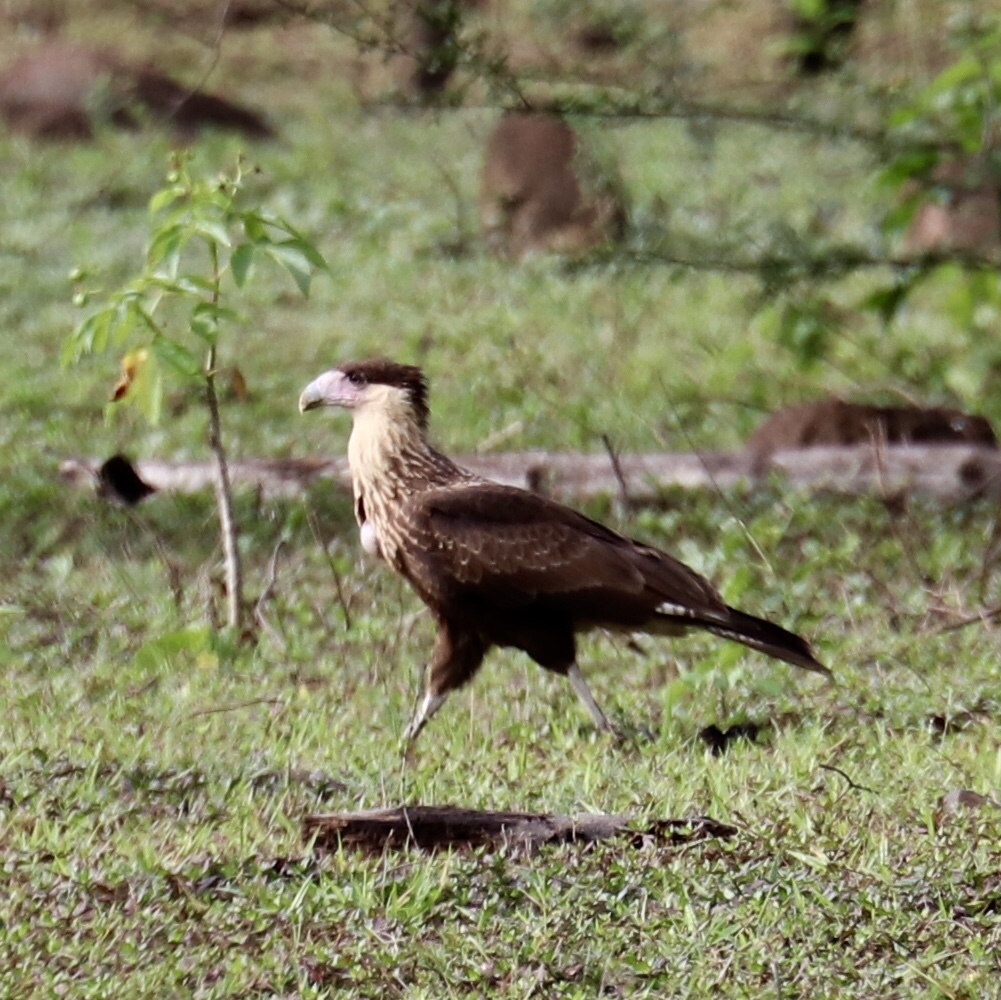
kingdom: Animalia
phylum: Chordata
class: Aves
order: Falconiformes
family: Falconidae
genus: Caracara
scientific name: Caracara plancus
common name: Southern caracara
